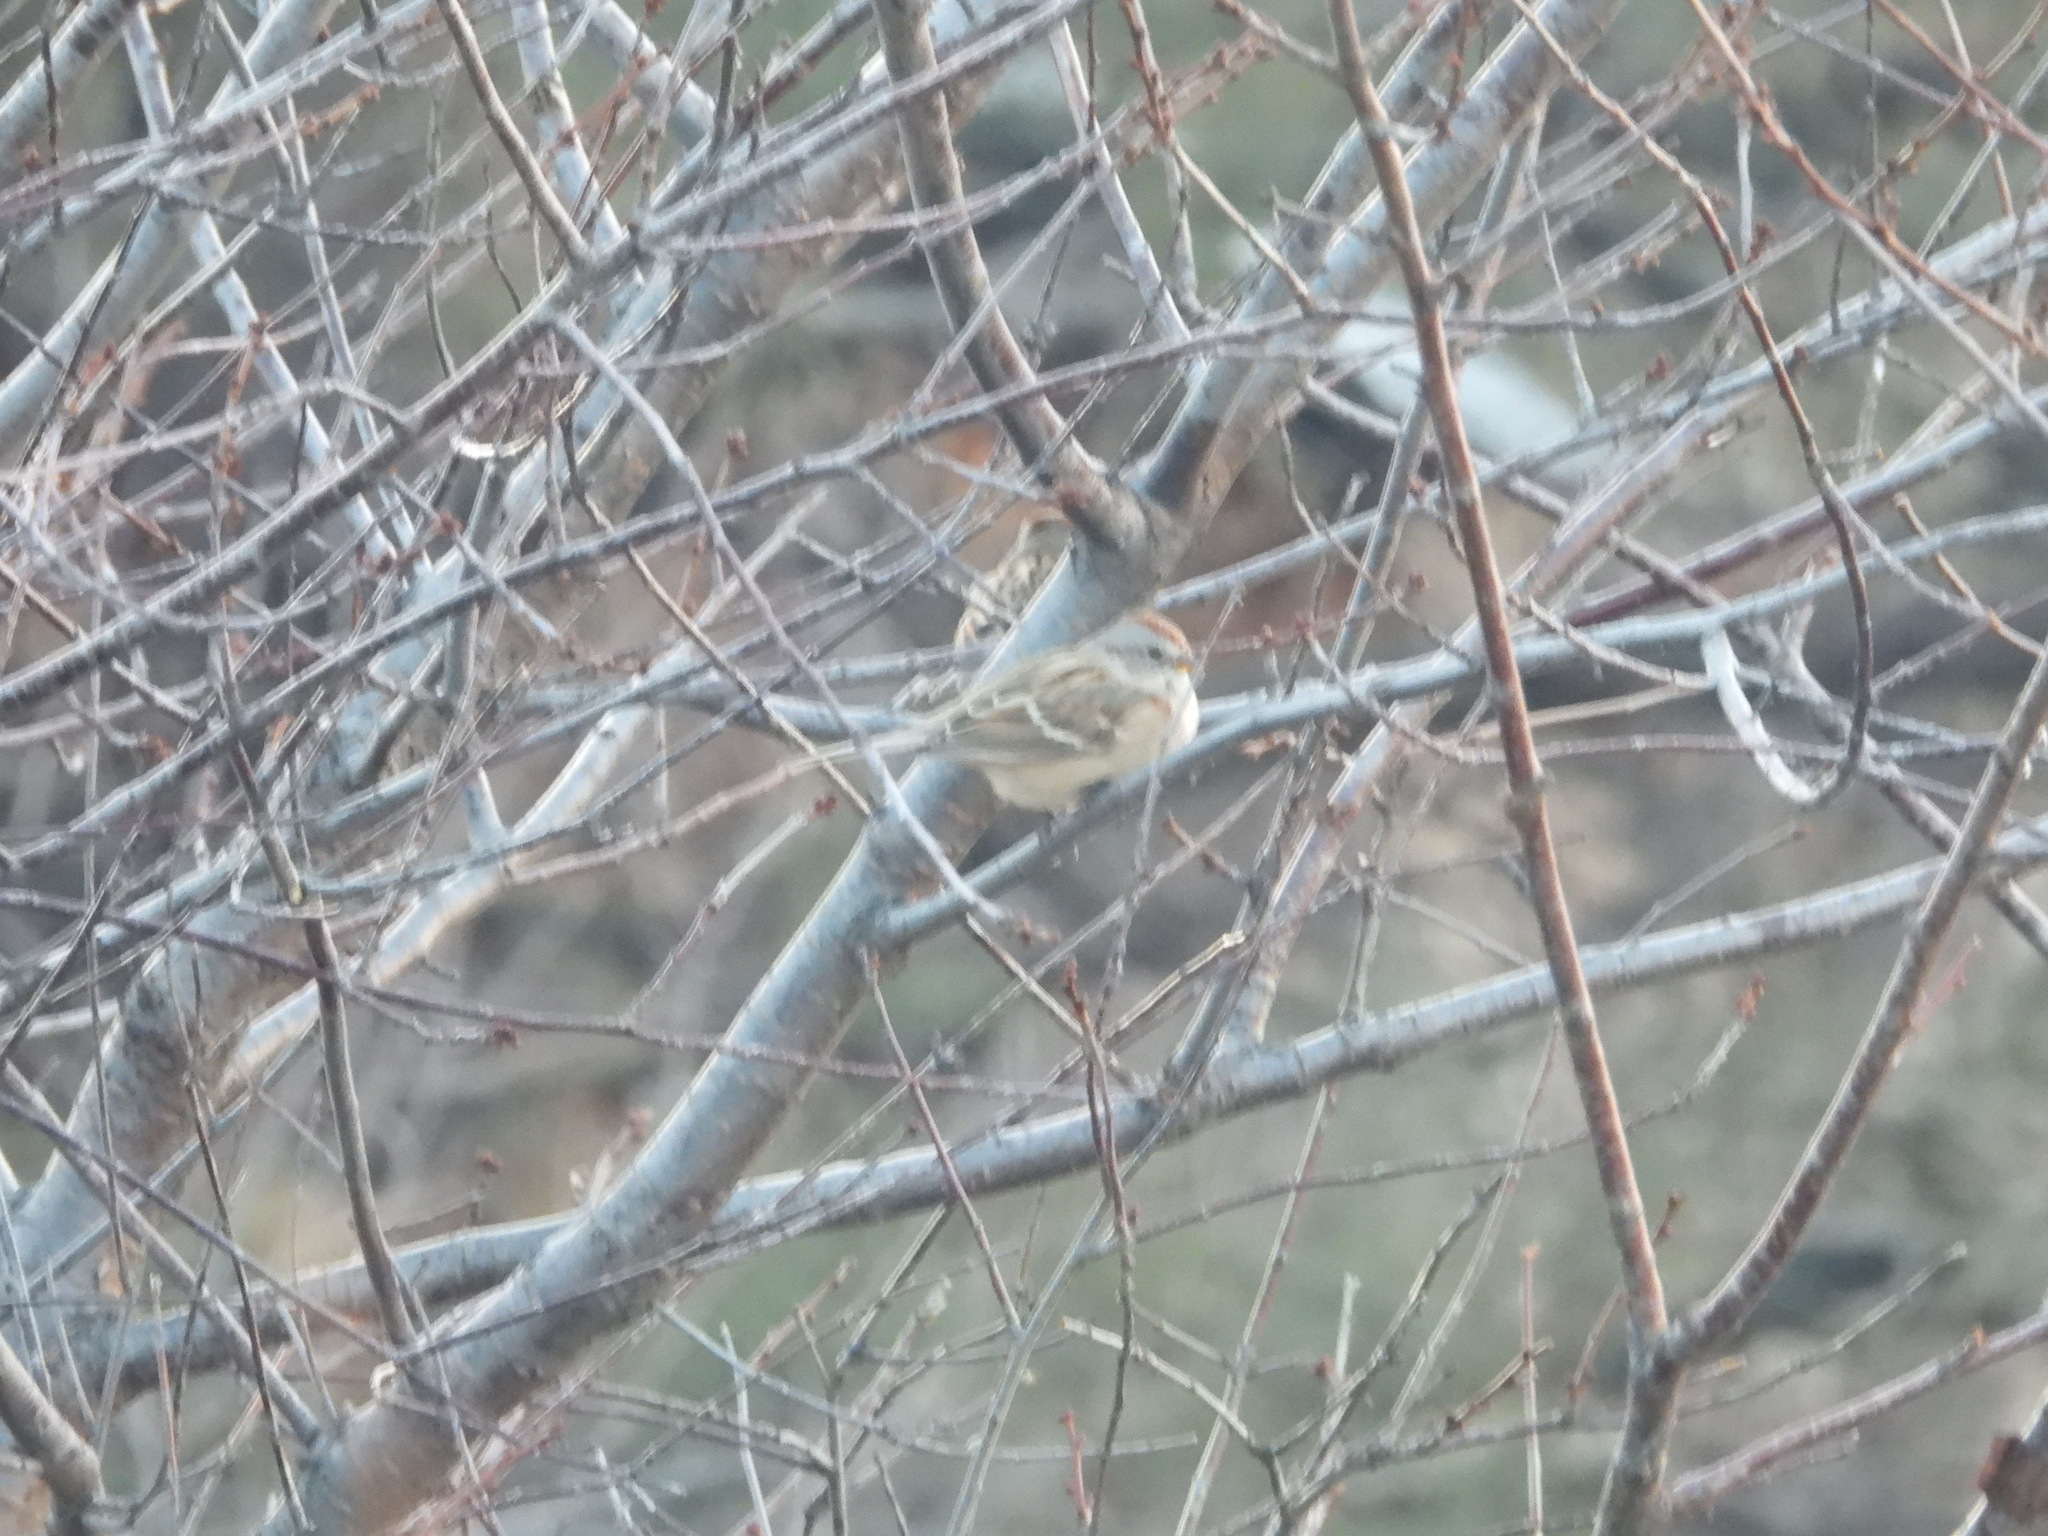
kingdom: Animalia
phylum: Chordata
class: Aves
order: Passeriformes
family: Passerellidae
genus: Spizelloides
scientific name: Spizelloides arborea
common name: American tree sparrow
